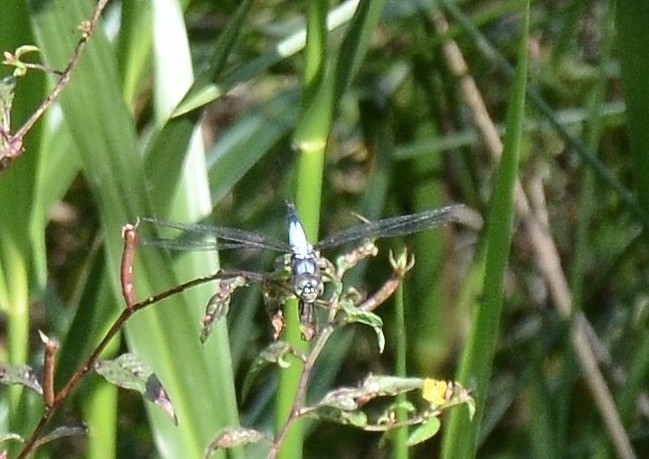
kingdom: Animalia
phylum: Arthropoda
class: Insecta
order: Odonata
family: Libellulidae
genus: Brachydiplax
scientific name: Brachydiplax chalybea
